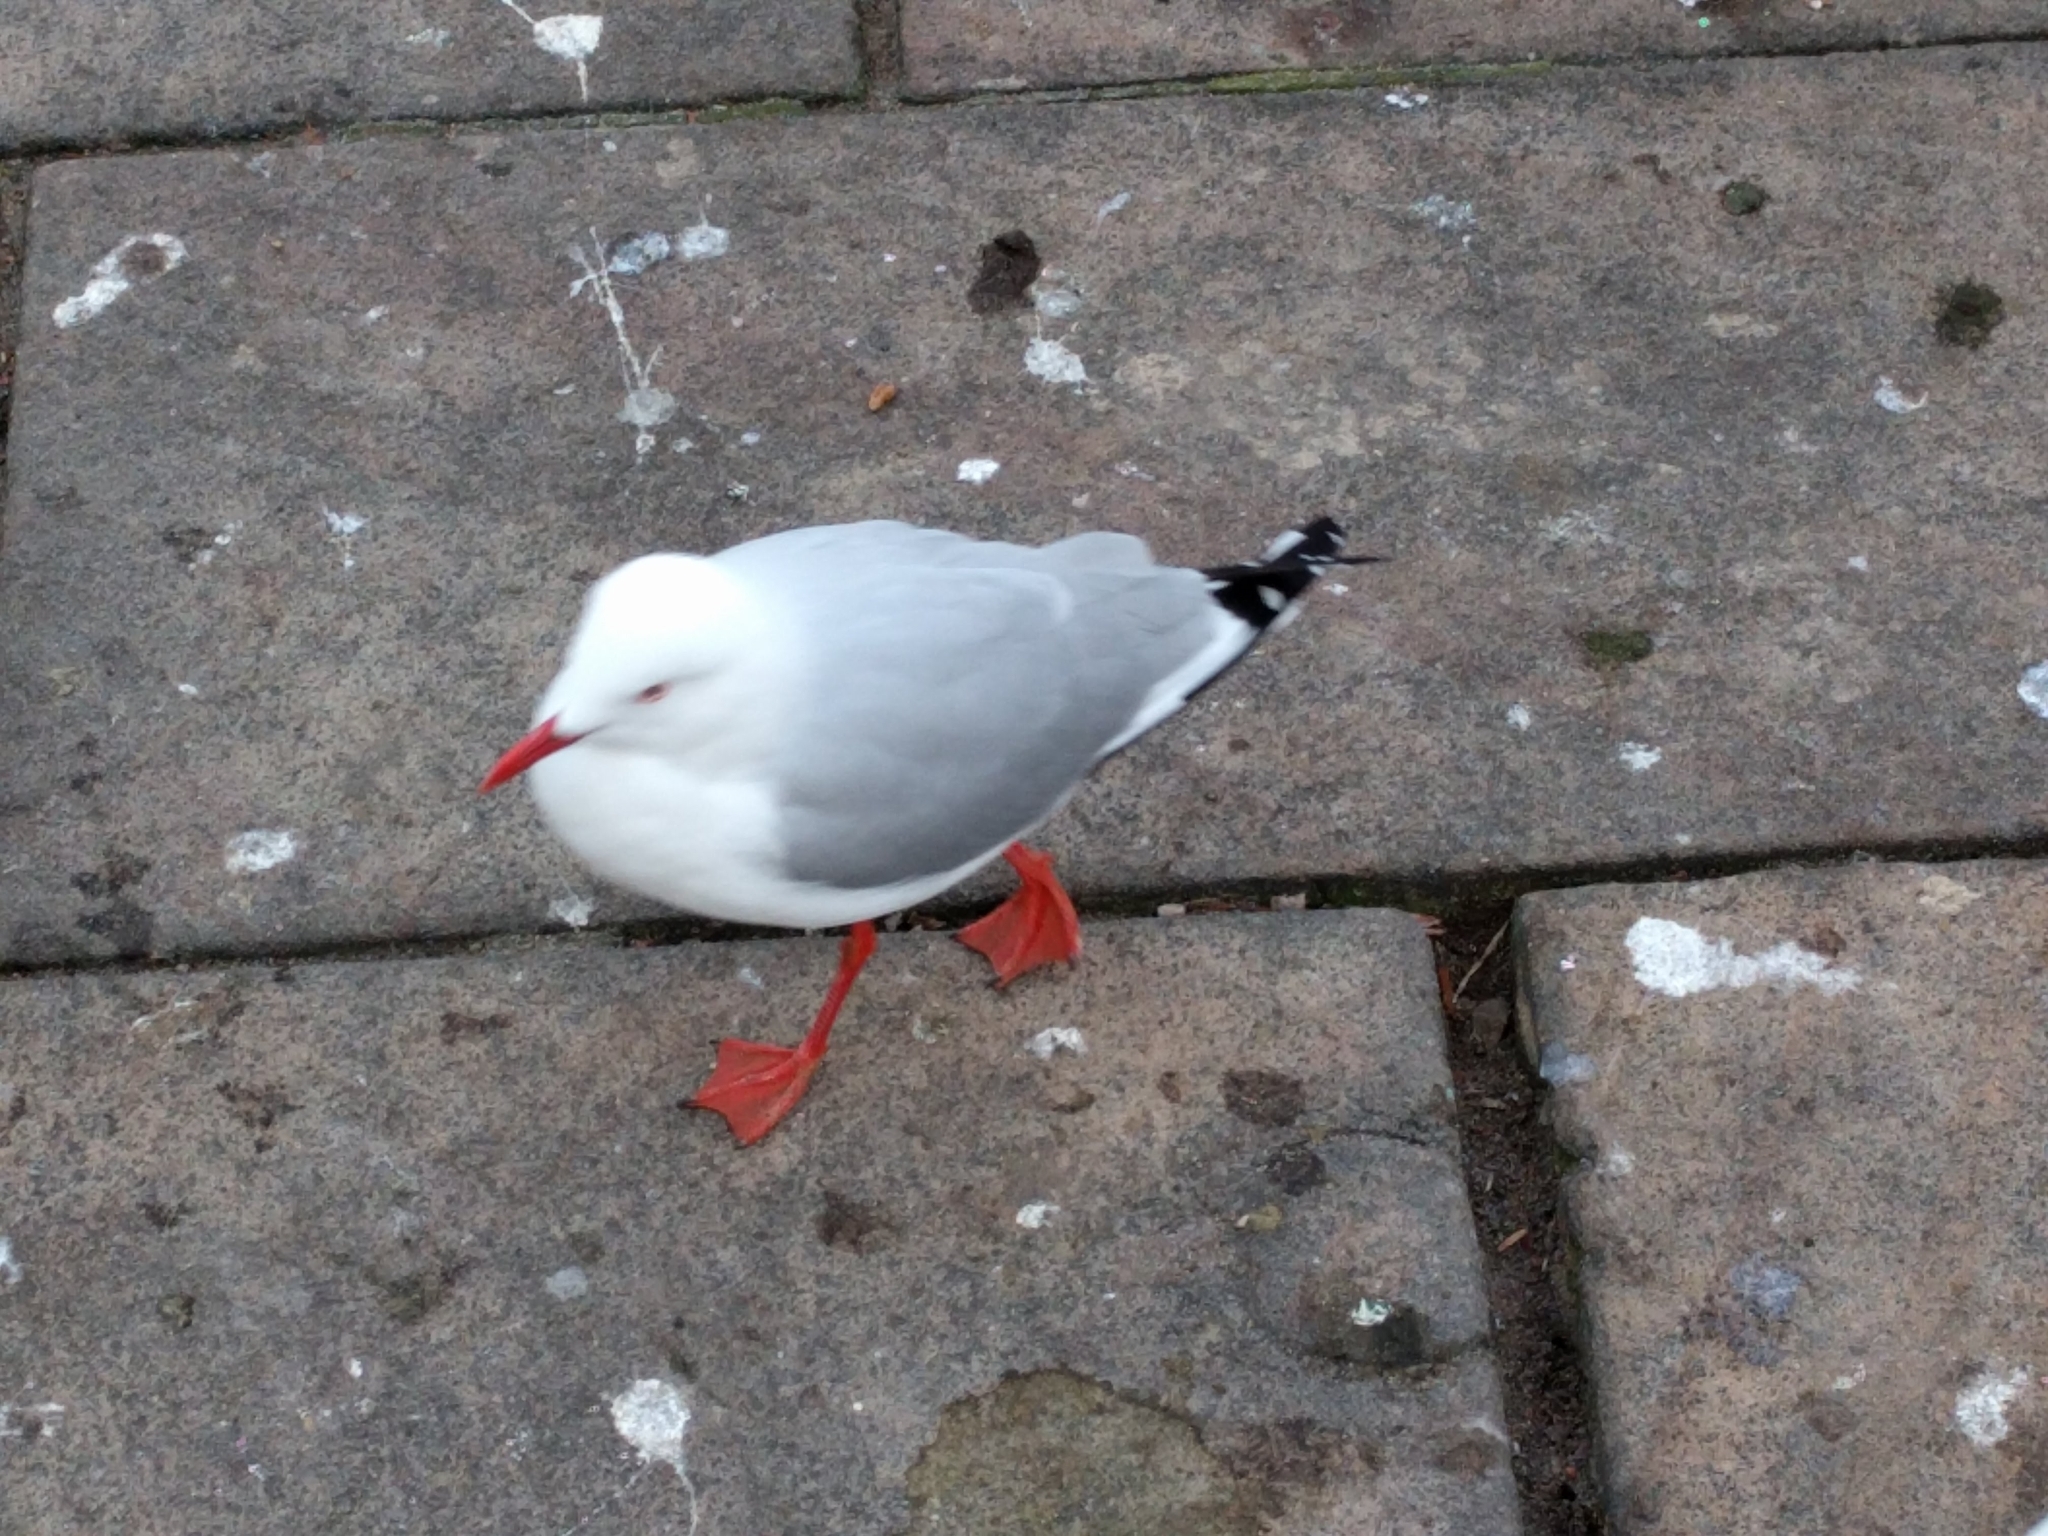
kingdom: Animalia
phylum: Chordata
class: Aves
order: Charadriiformes
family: Laridae
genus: Chroicocephalus
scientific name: Chroicocephalus novaehollandiae
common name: Silver gull
